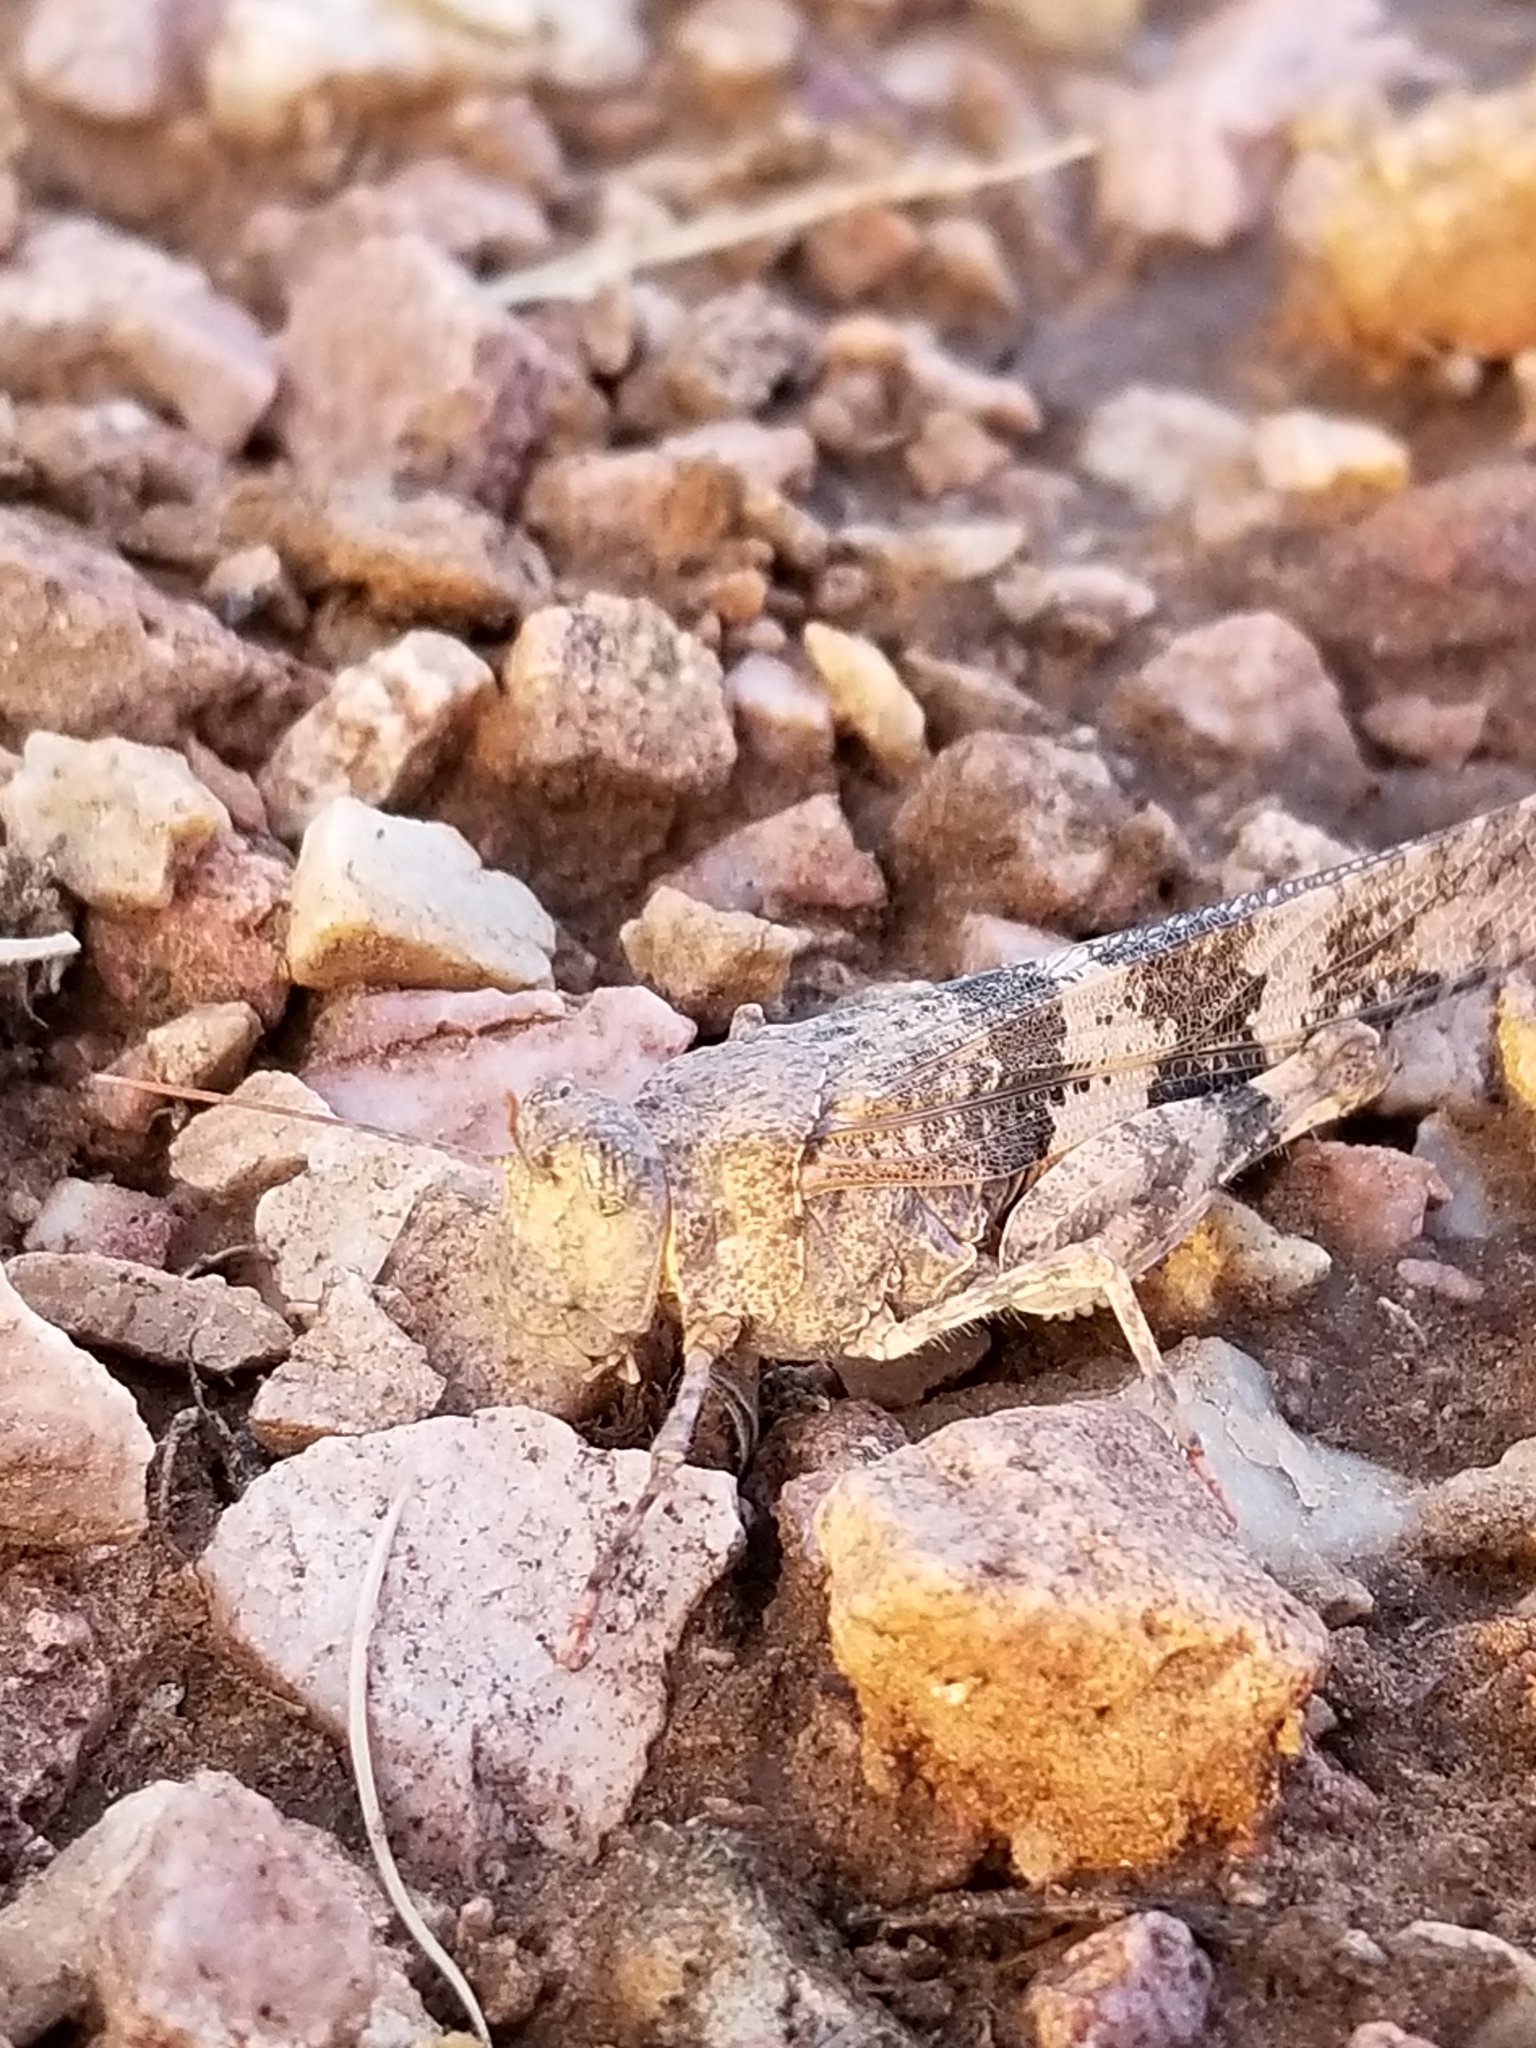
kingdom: Animalia
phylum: Arthropoda
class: Insecta
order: Orthoptera
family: Acrididae
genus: Trimerotropis
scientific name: Trimerotropis pallidipennis
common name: Pallid-winged grasshopper
